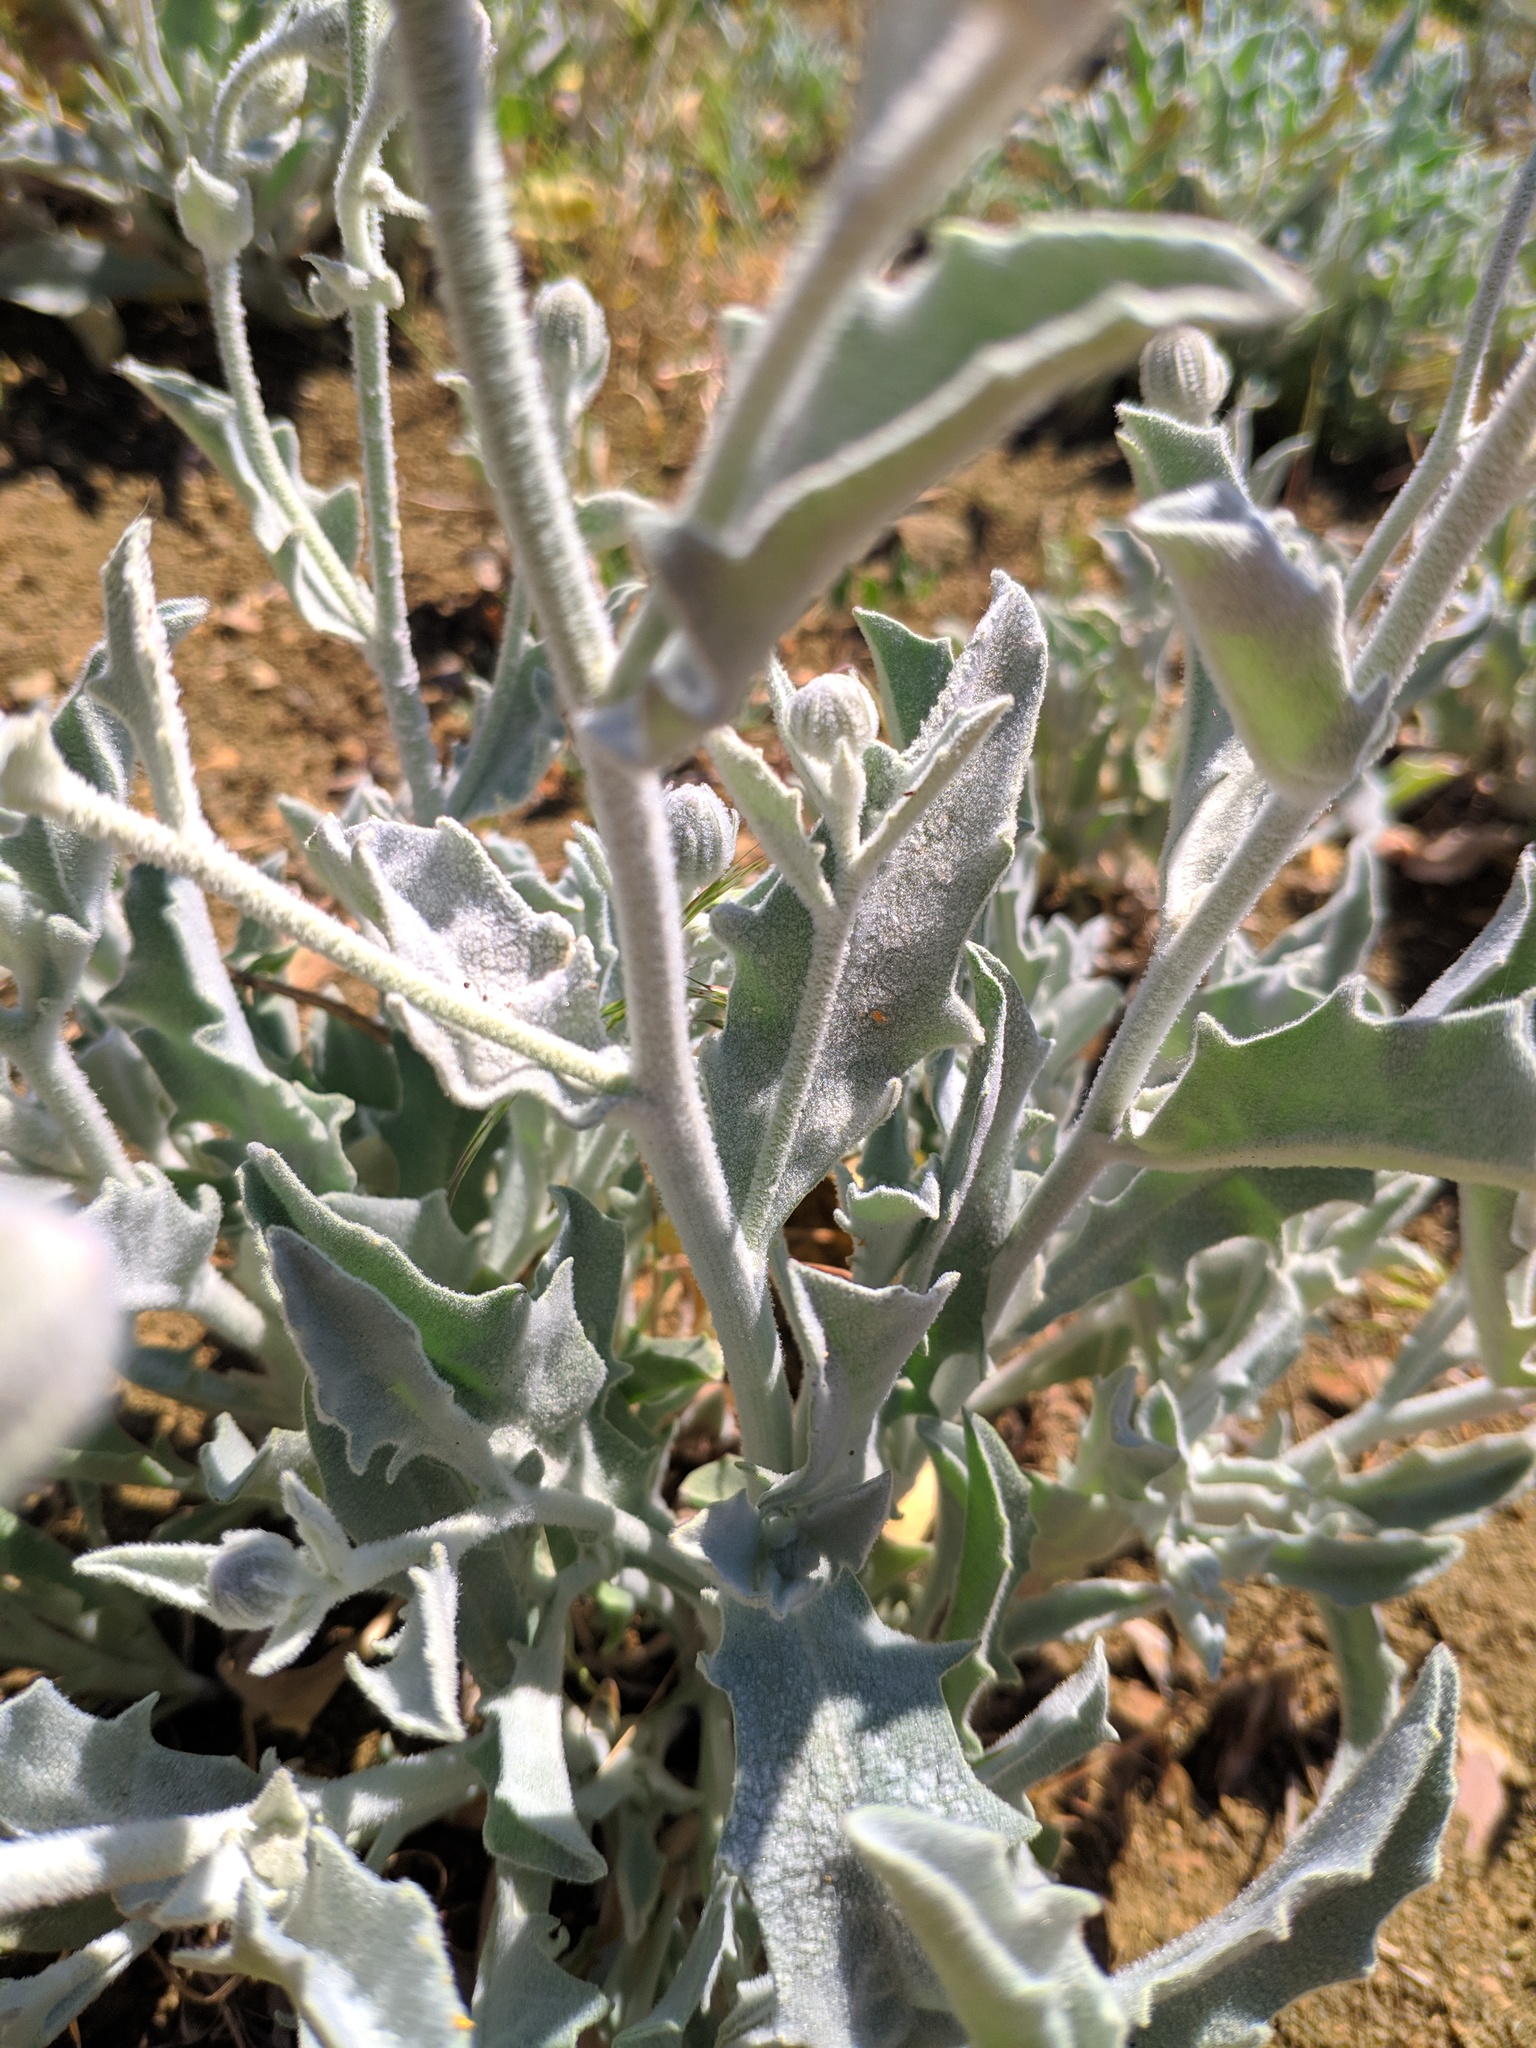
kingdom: Plantae
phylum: Tracheophyta
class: Magnoliopsida
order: Asterales
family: Asteraceae
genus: Andryala
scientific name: Andryala ragusina
